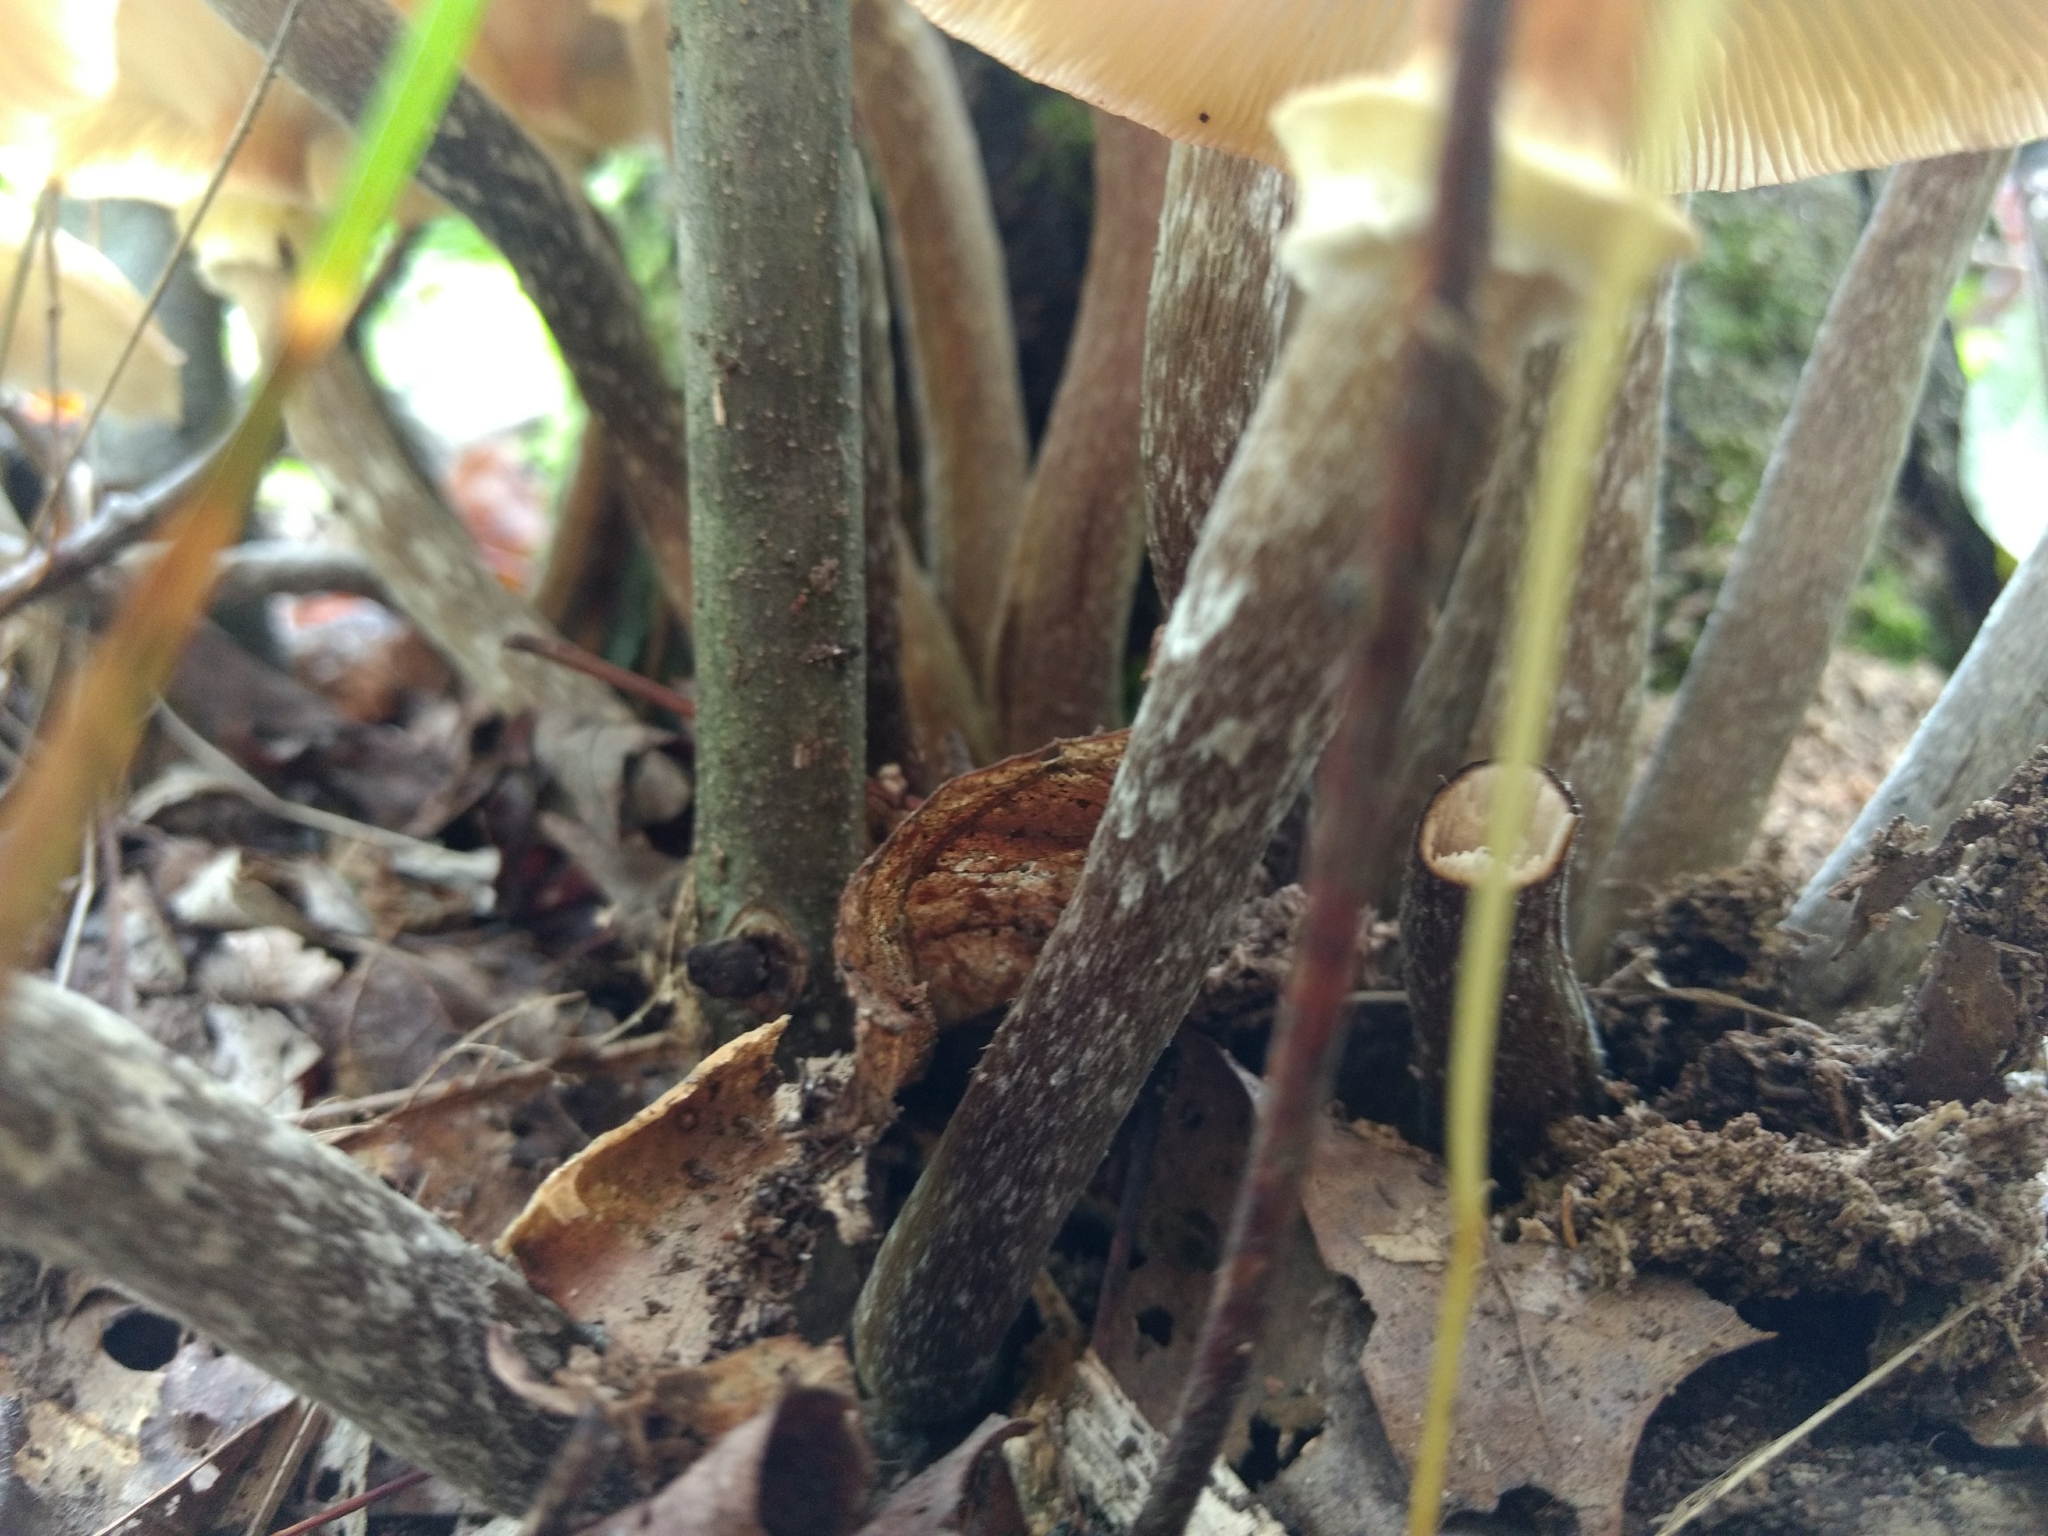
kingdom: Fungi
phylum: Basidiomycota
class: Agaricomycetes
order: Agaricales
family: Physalacriaceae
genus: Armillaria
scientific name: Armillaria mellea
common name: Honey fungus
